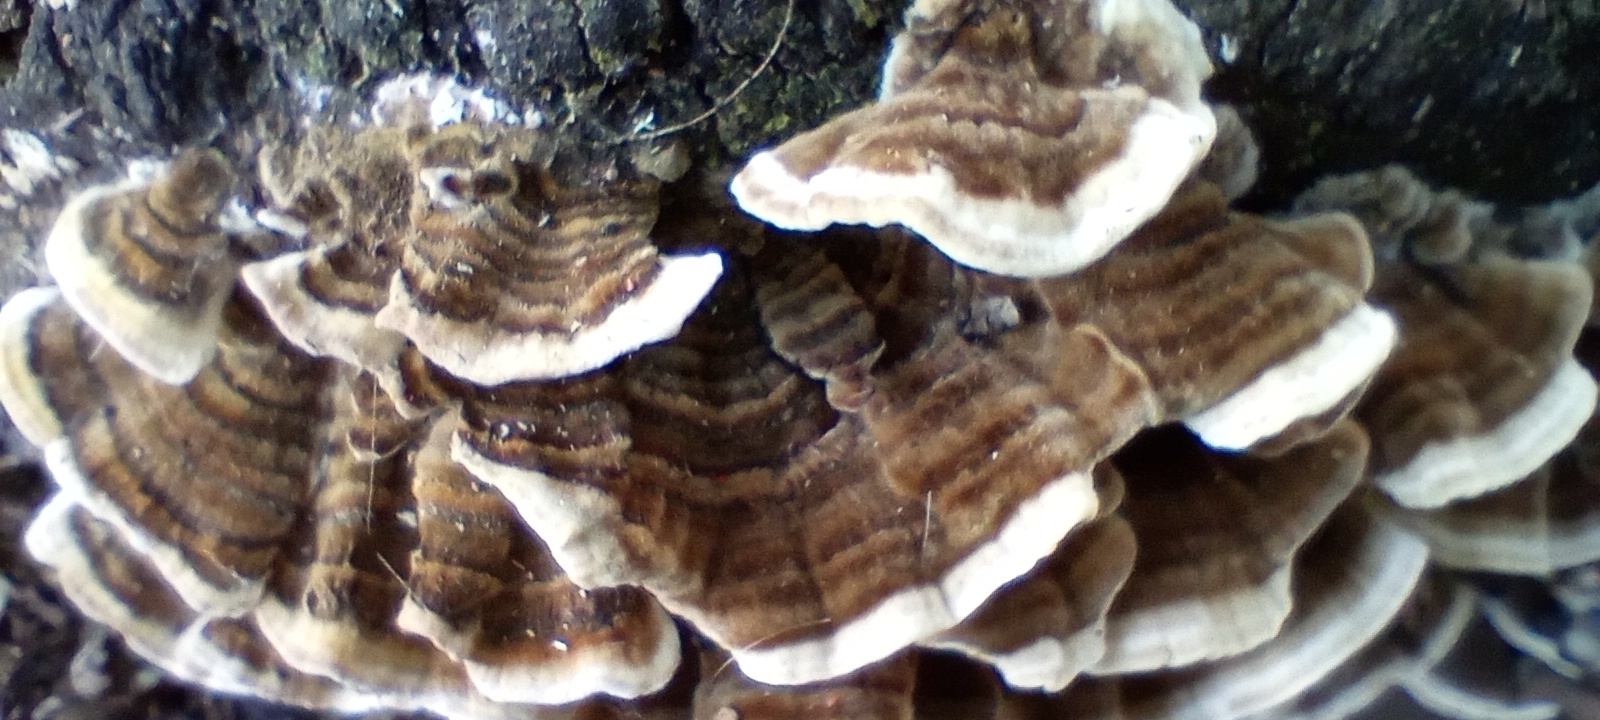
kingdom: Fungi
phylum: Basidiomycota
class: Agaricomycetes
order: Polyporales
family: Polyporaceae
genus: Trametes
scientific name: Trametes versicolor
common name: Turkeytail
